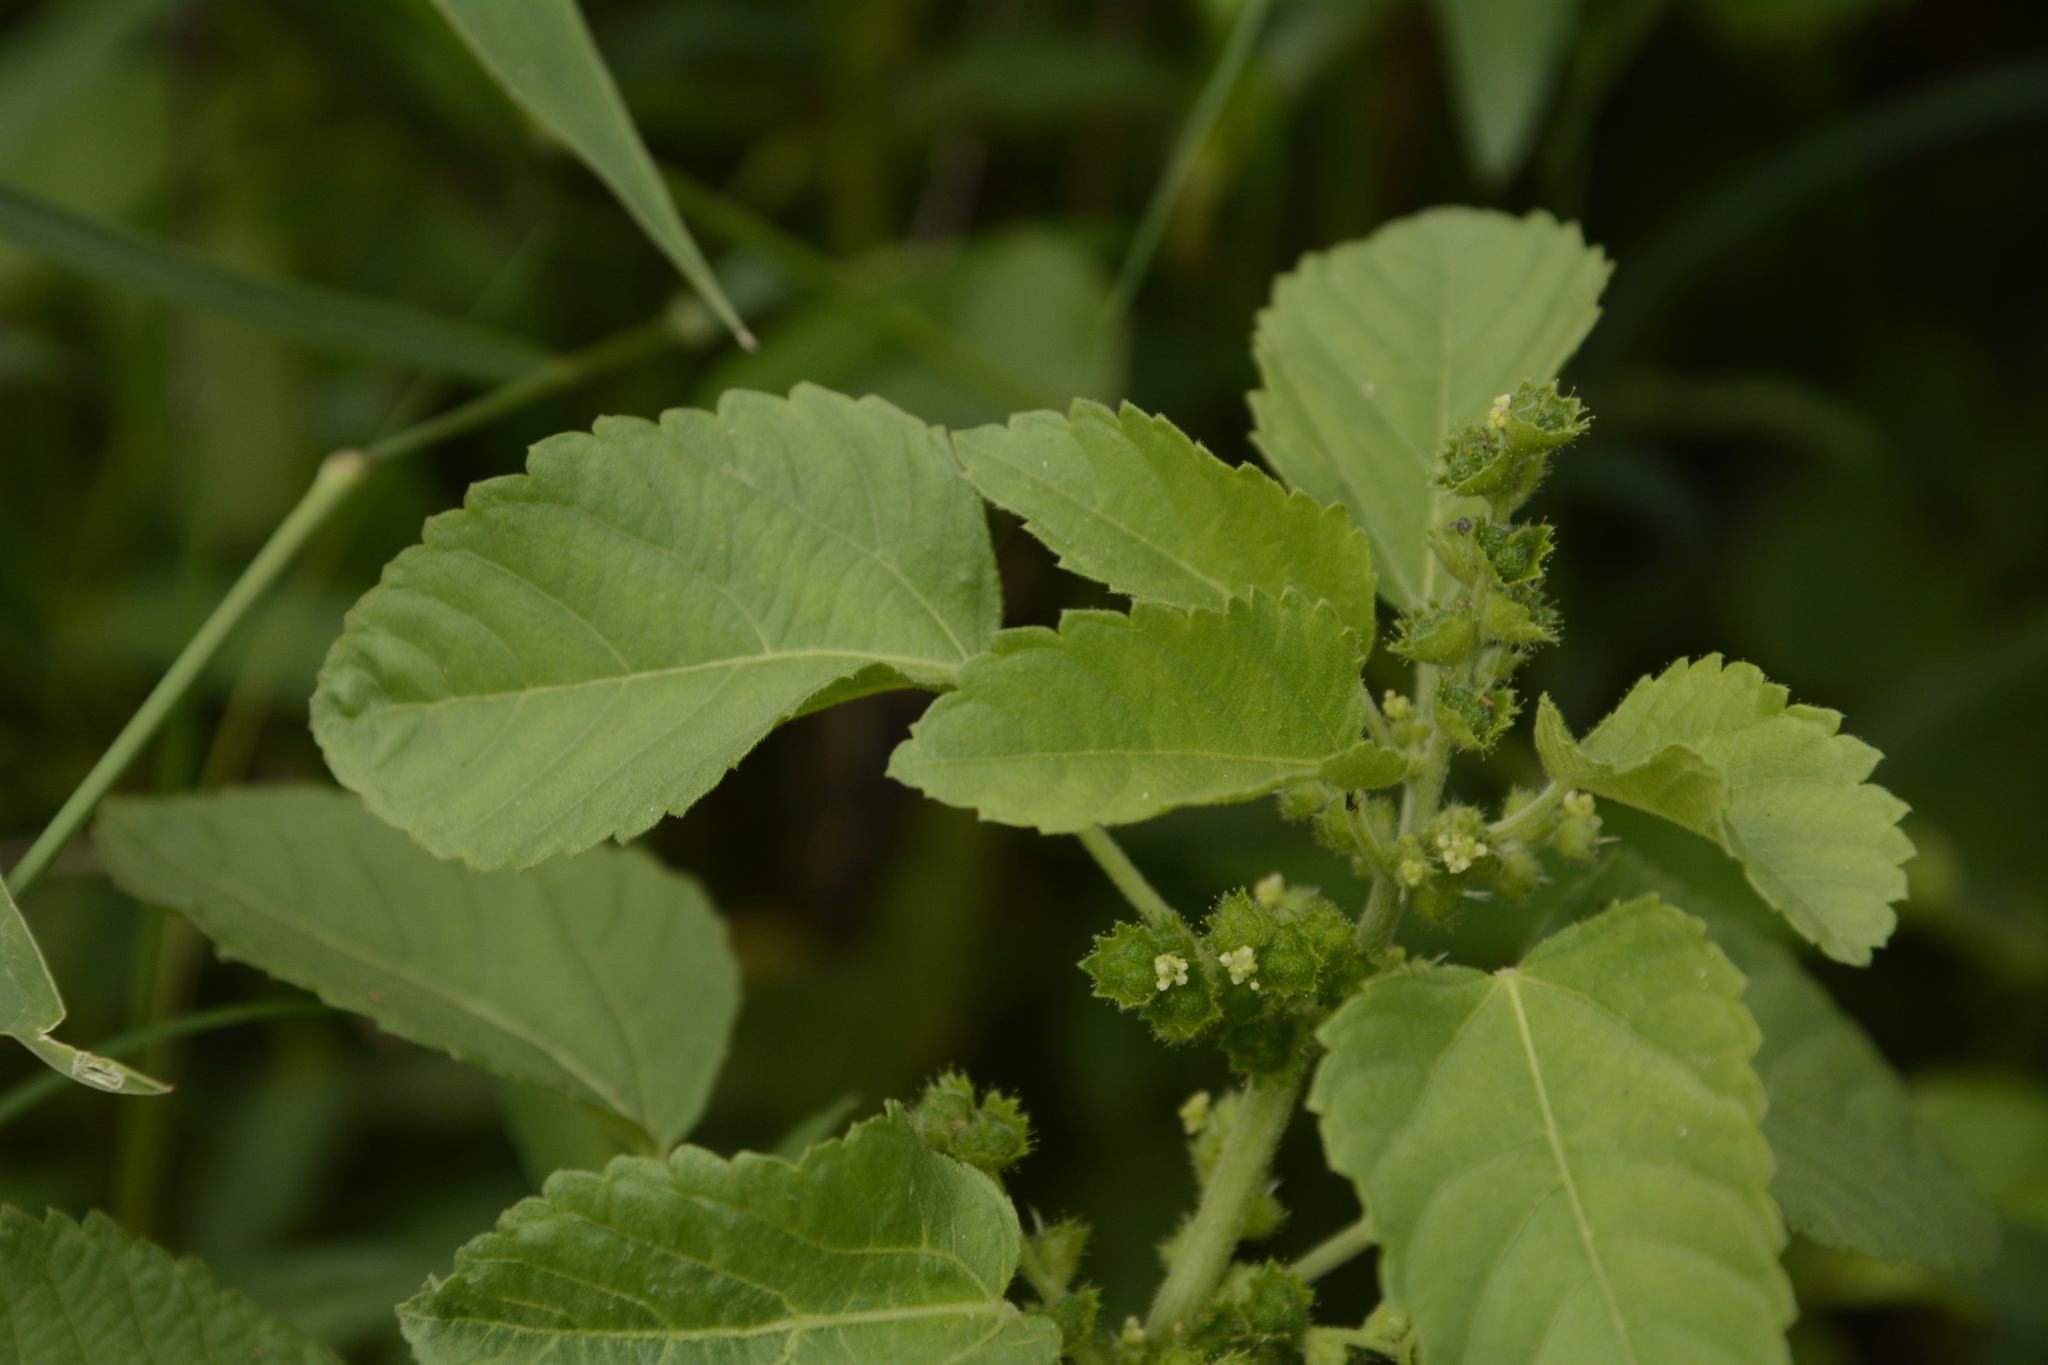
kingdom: Plantae
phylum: Tracheophyta
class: Magnoliopsida
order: Malpighiales
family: Euphorbiaceae
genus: Acalypha
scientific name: Acalypha malabarica
